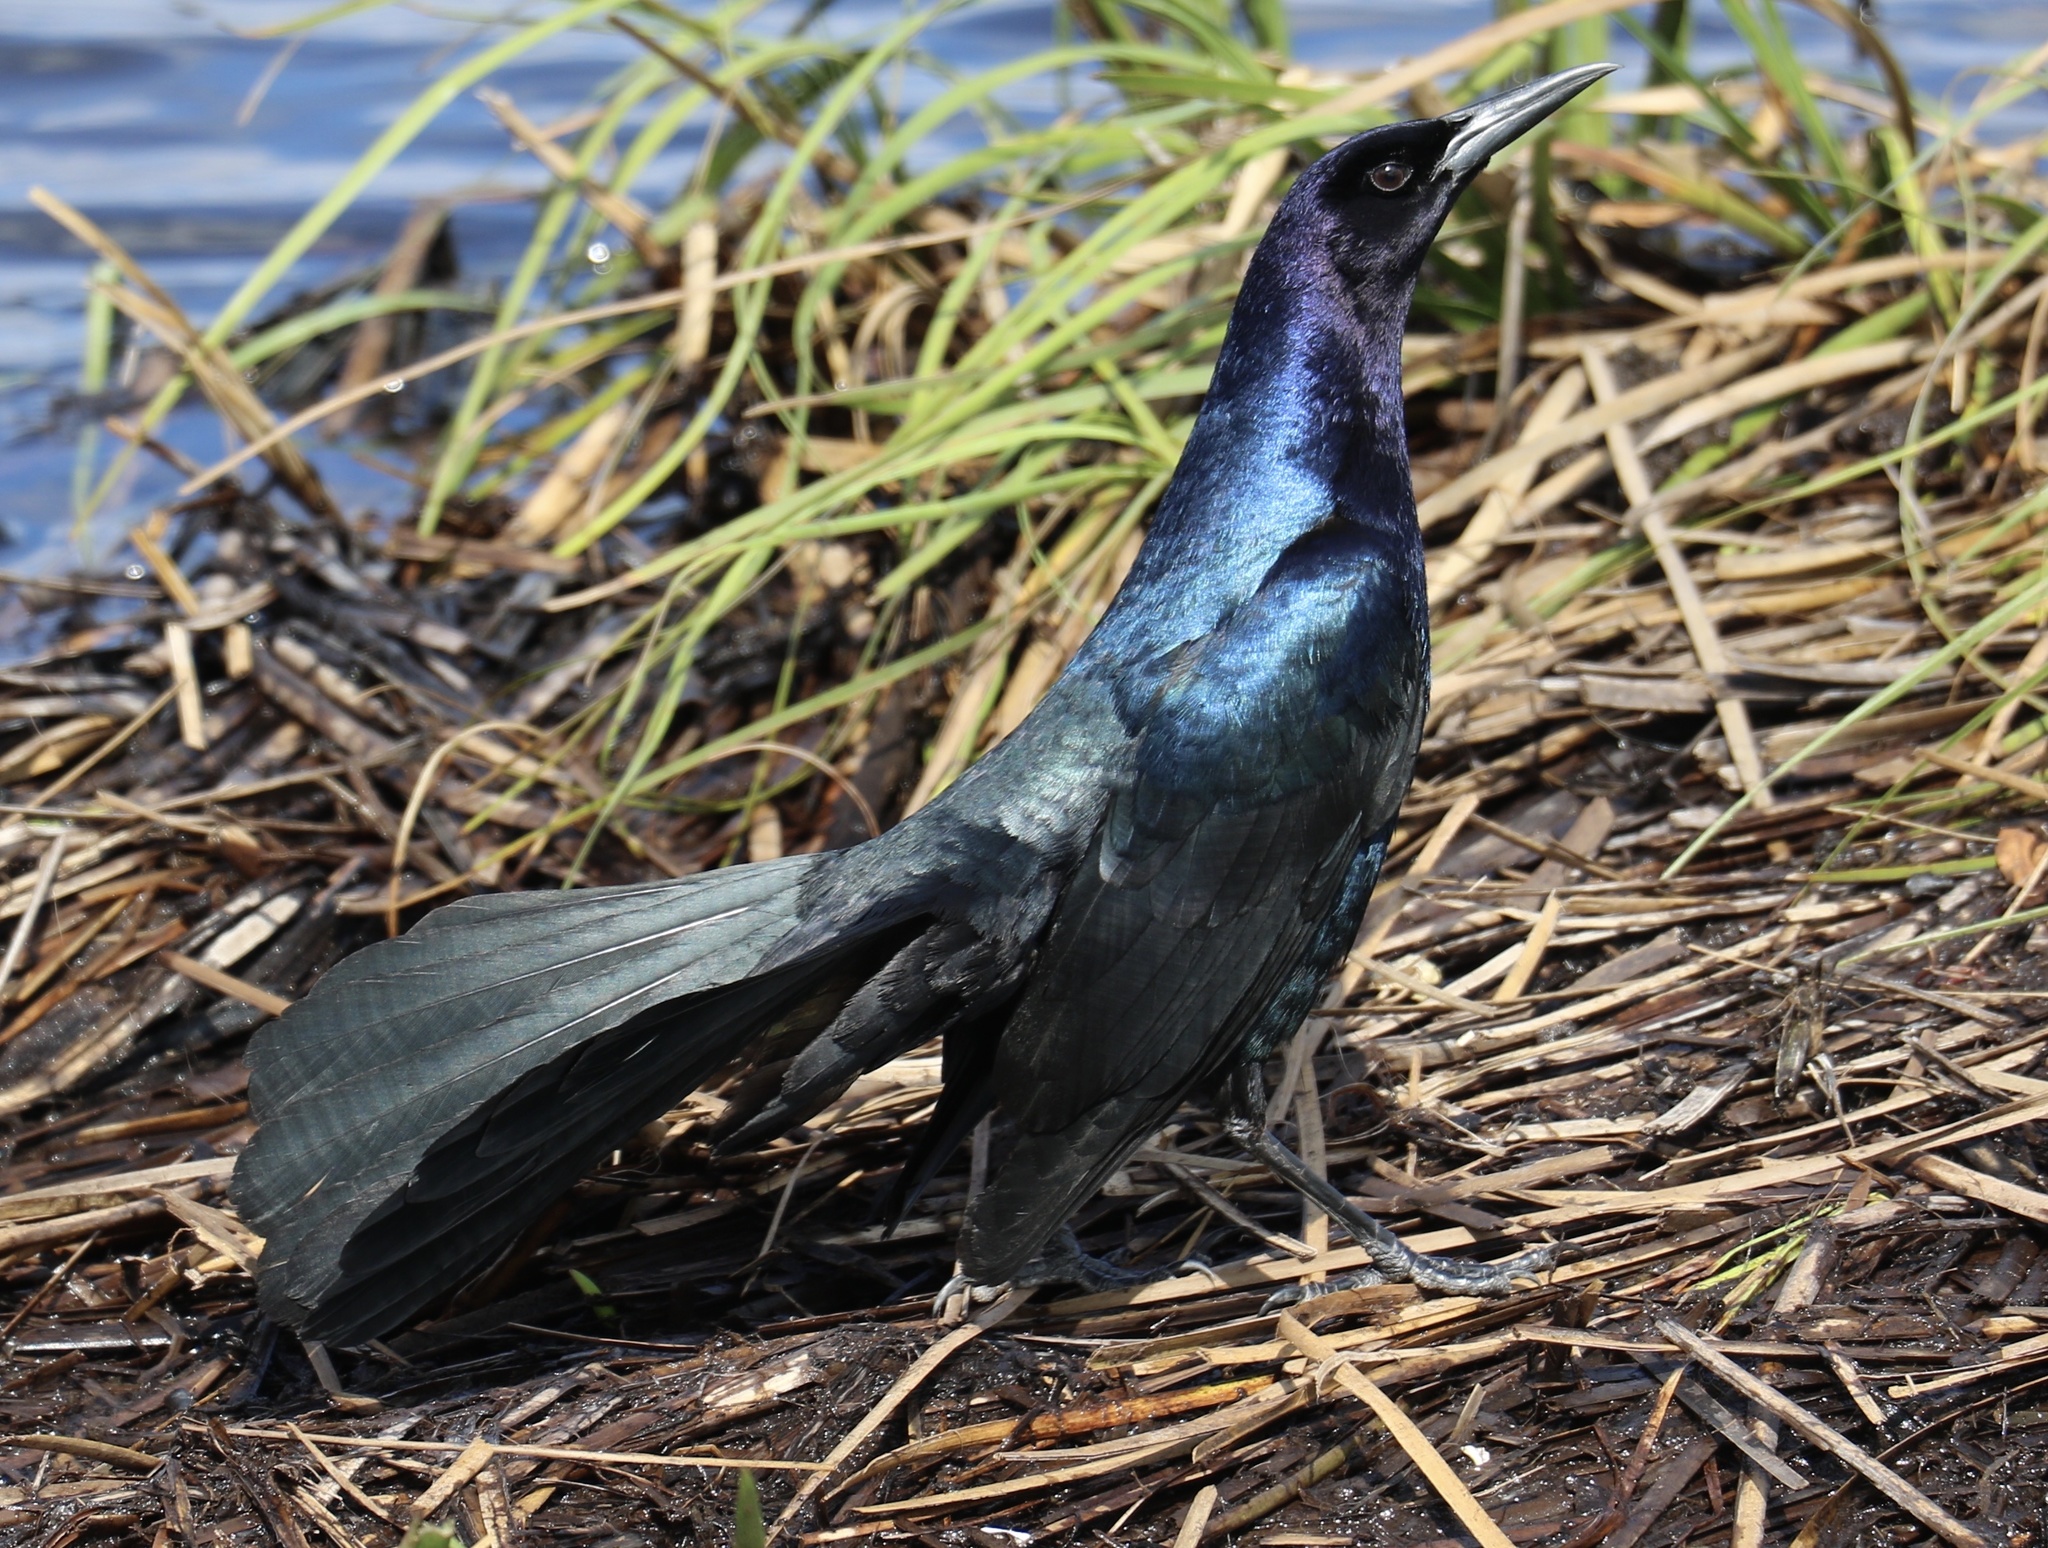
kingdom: Animalia
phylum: Chordata
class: Aves
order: Passeriformes
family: Icteridae
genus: Quiscalus
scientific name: Quiscalus major
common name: Boat-tailed grackle
